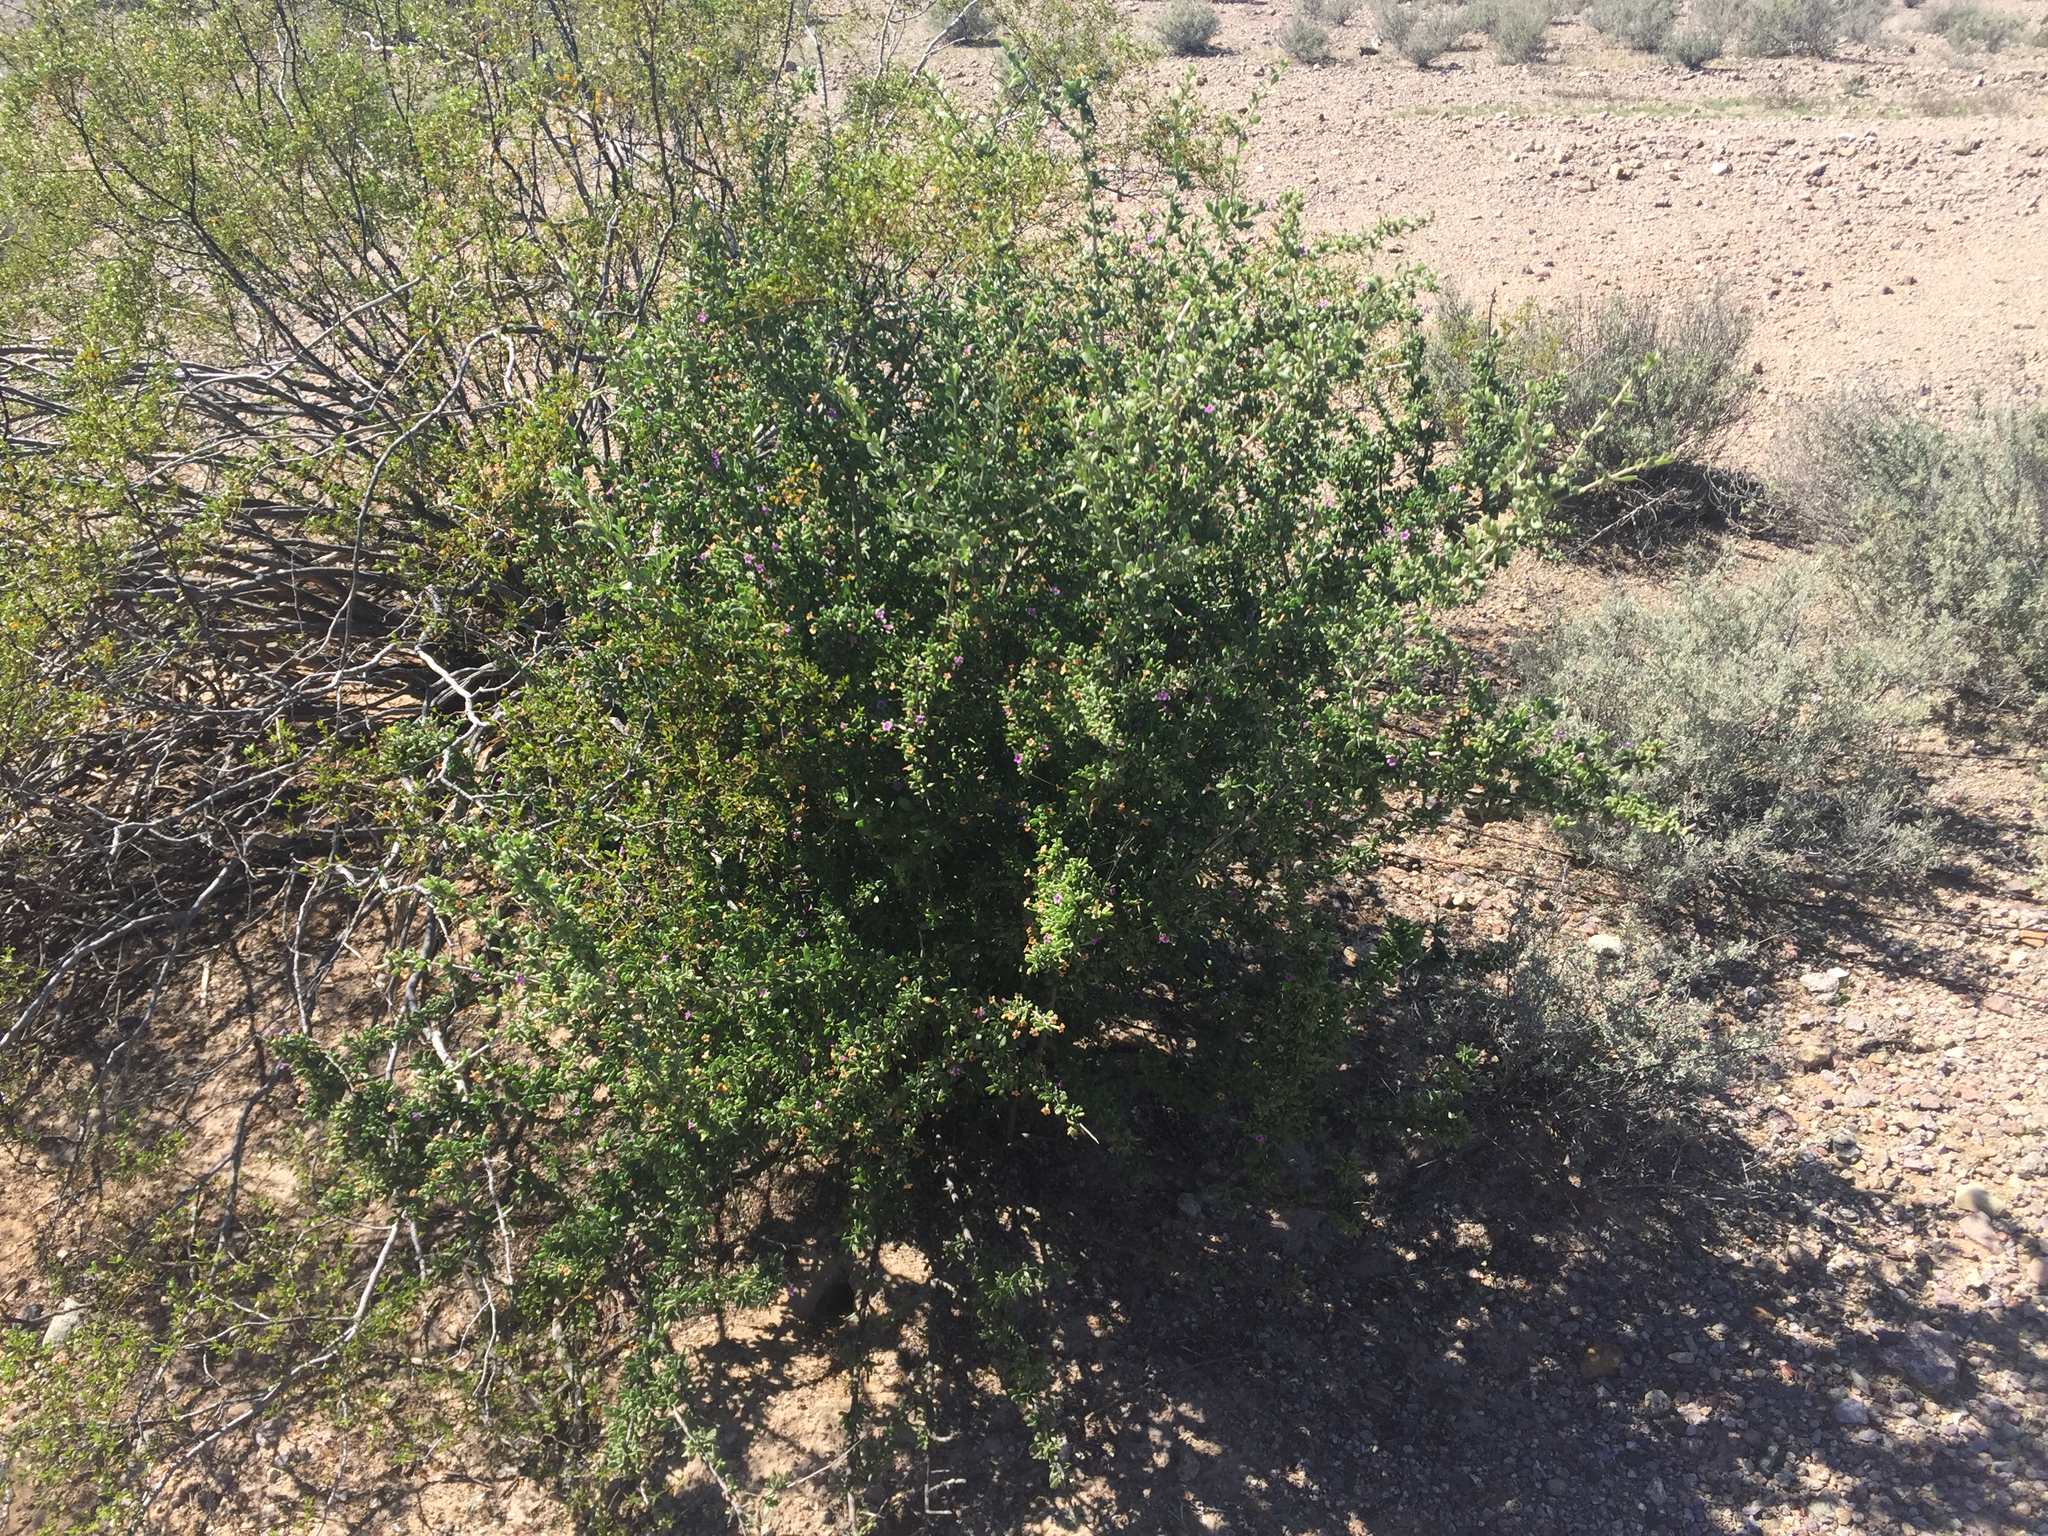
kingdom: Plantae
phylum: Tracheophyta
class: Magnoliopsida
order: Solanales
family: Solanaceae
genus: Lycium
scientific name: Lycium fremontii
